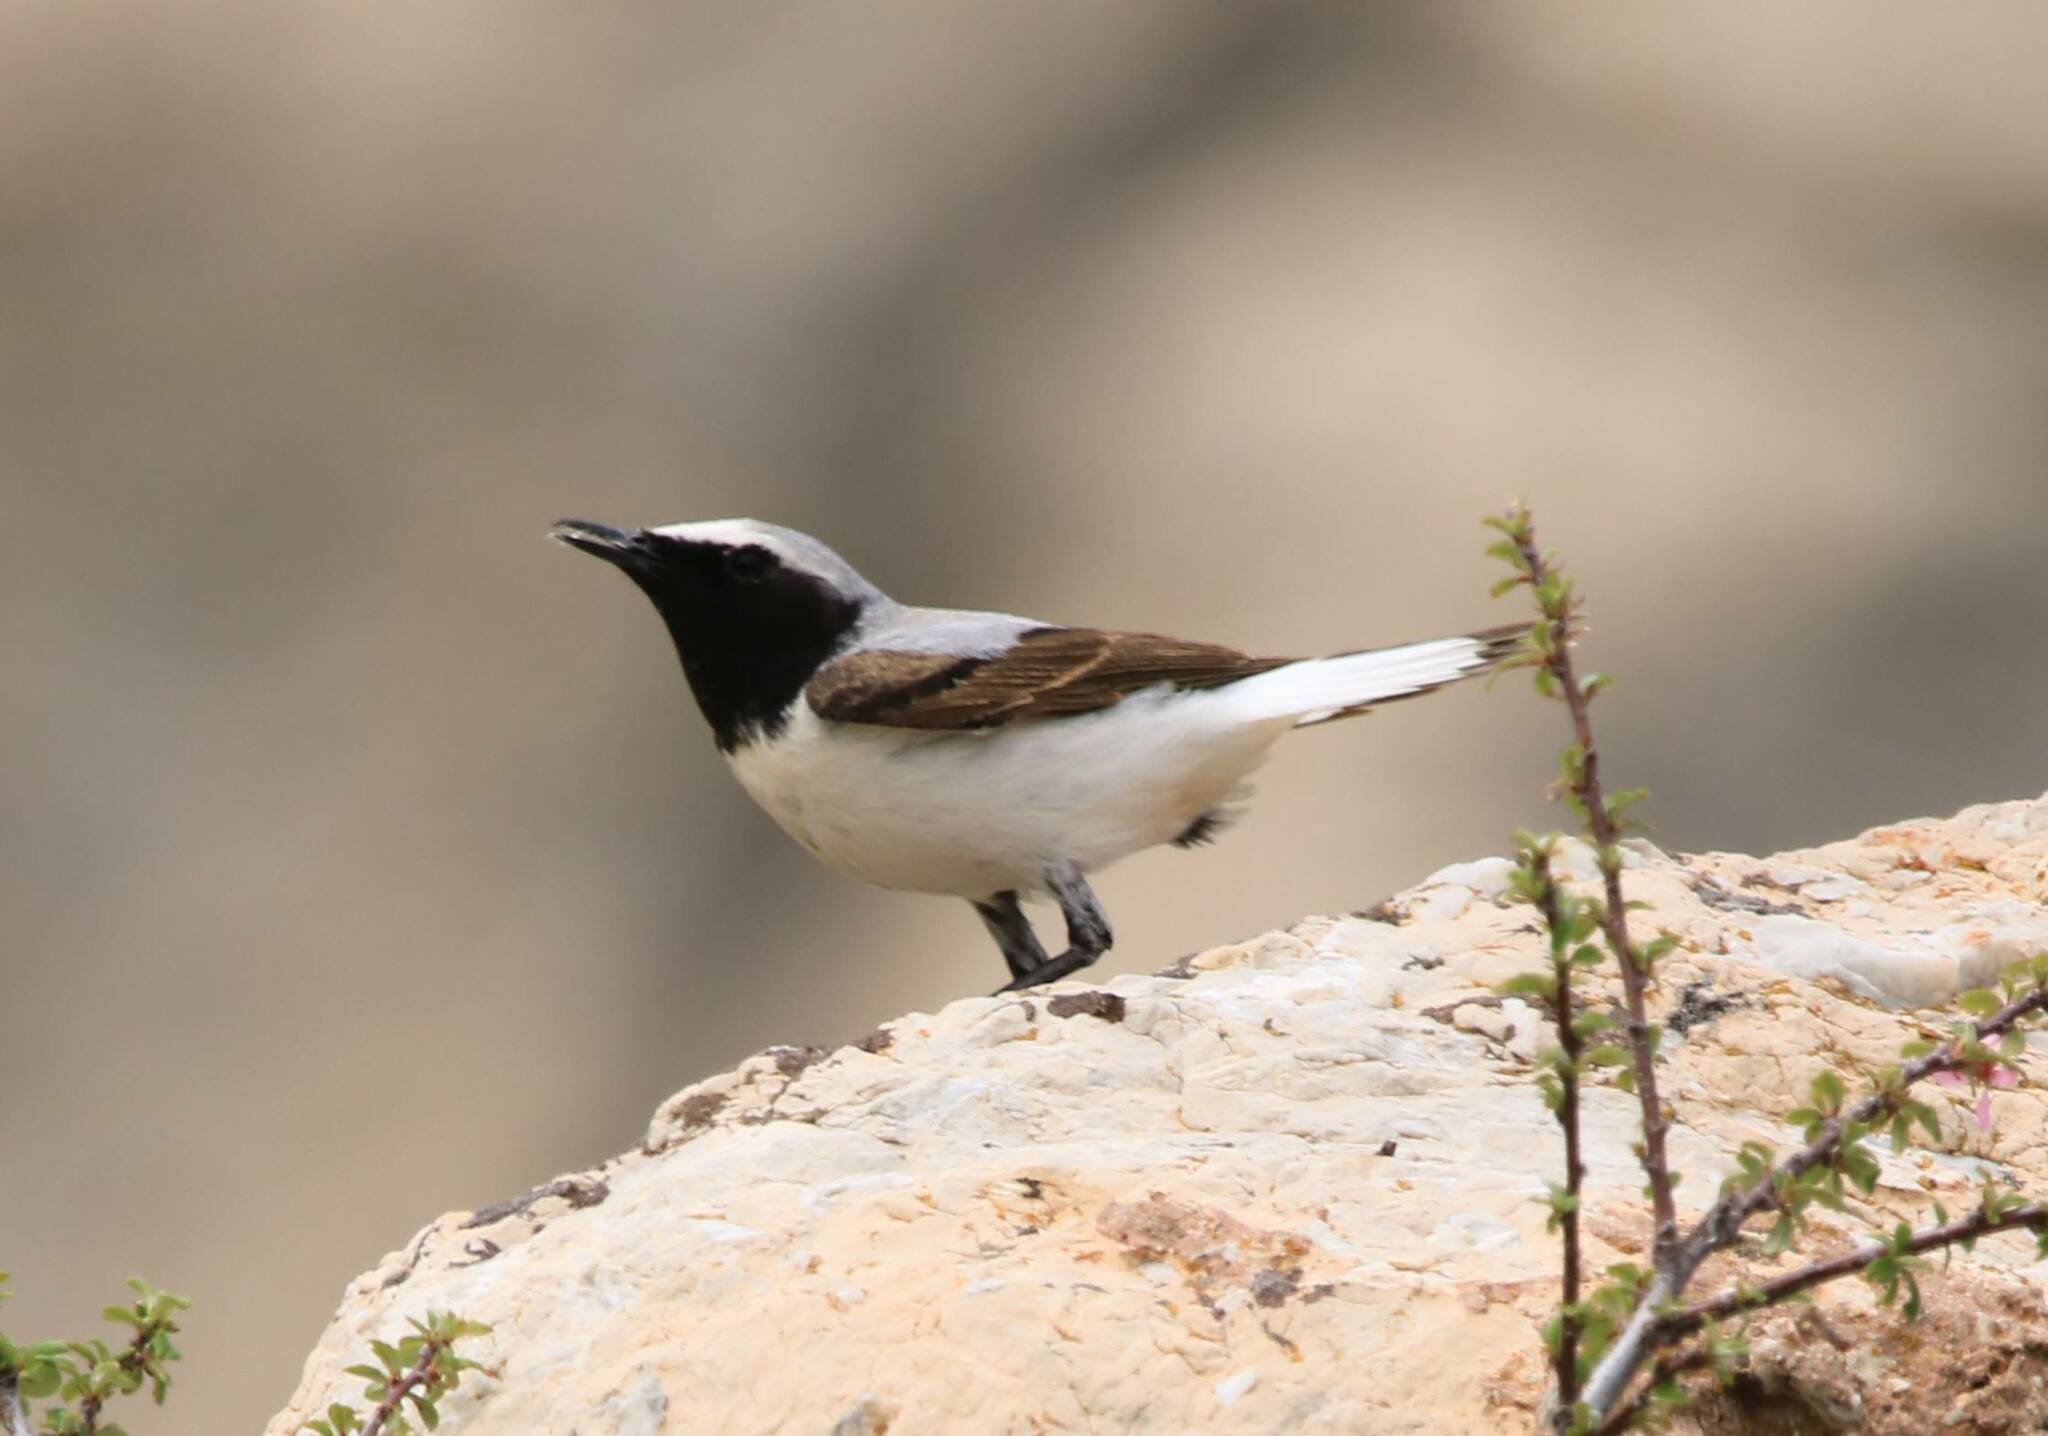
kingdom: Animalia
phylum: Chordata
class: Aves
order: Passeriformes
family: Muscicapidae
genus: Oenanthe
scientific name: Oenanthe oenanthe
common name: Northern wheatear
